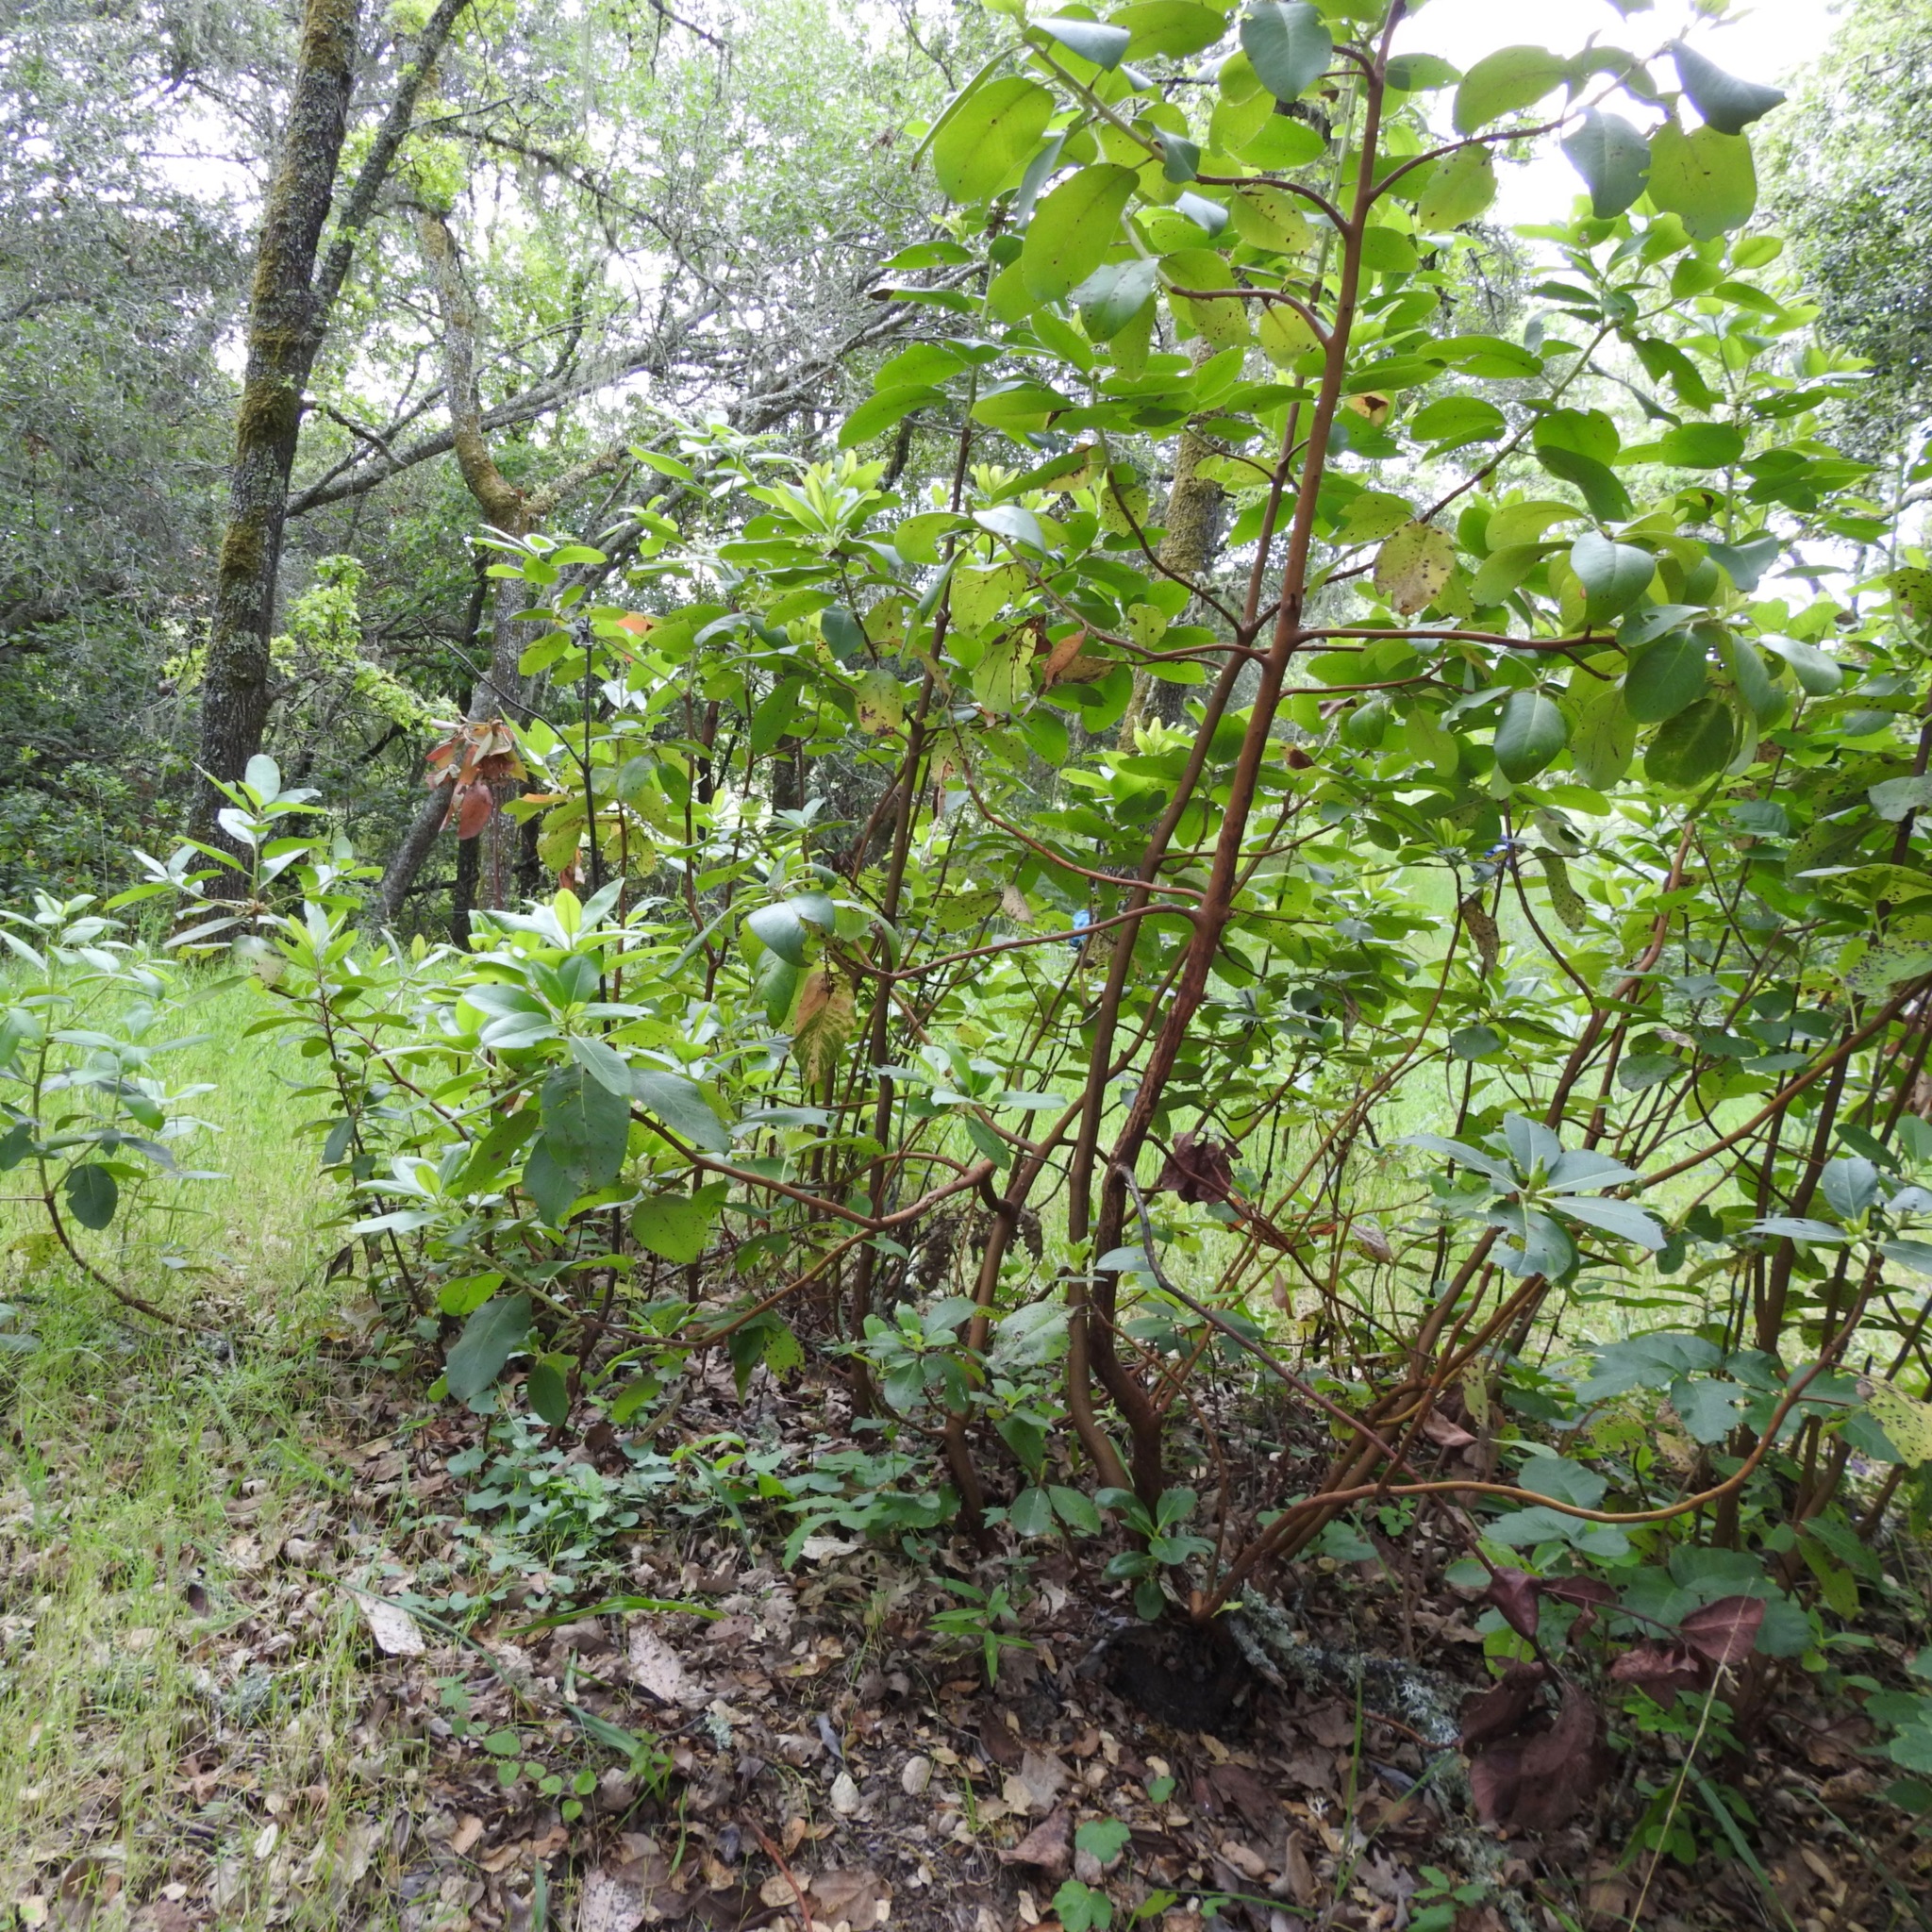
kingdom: Plantae
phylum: Tracheophyta
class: Magnoliopsida
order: Ericales
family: Ericaceae
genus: Arbutus
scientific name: Arbutus menziesii
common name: Pacific madrone
